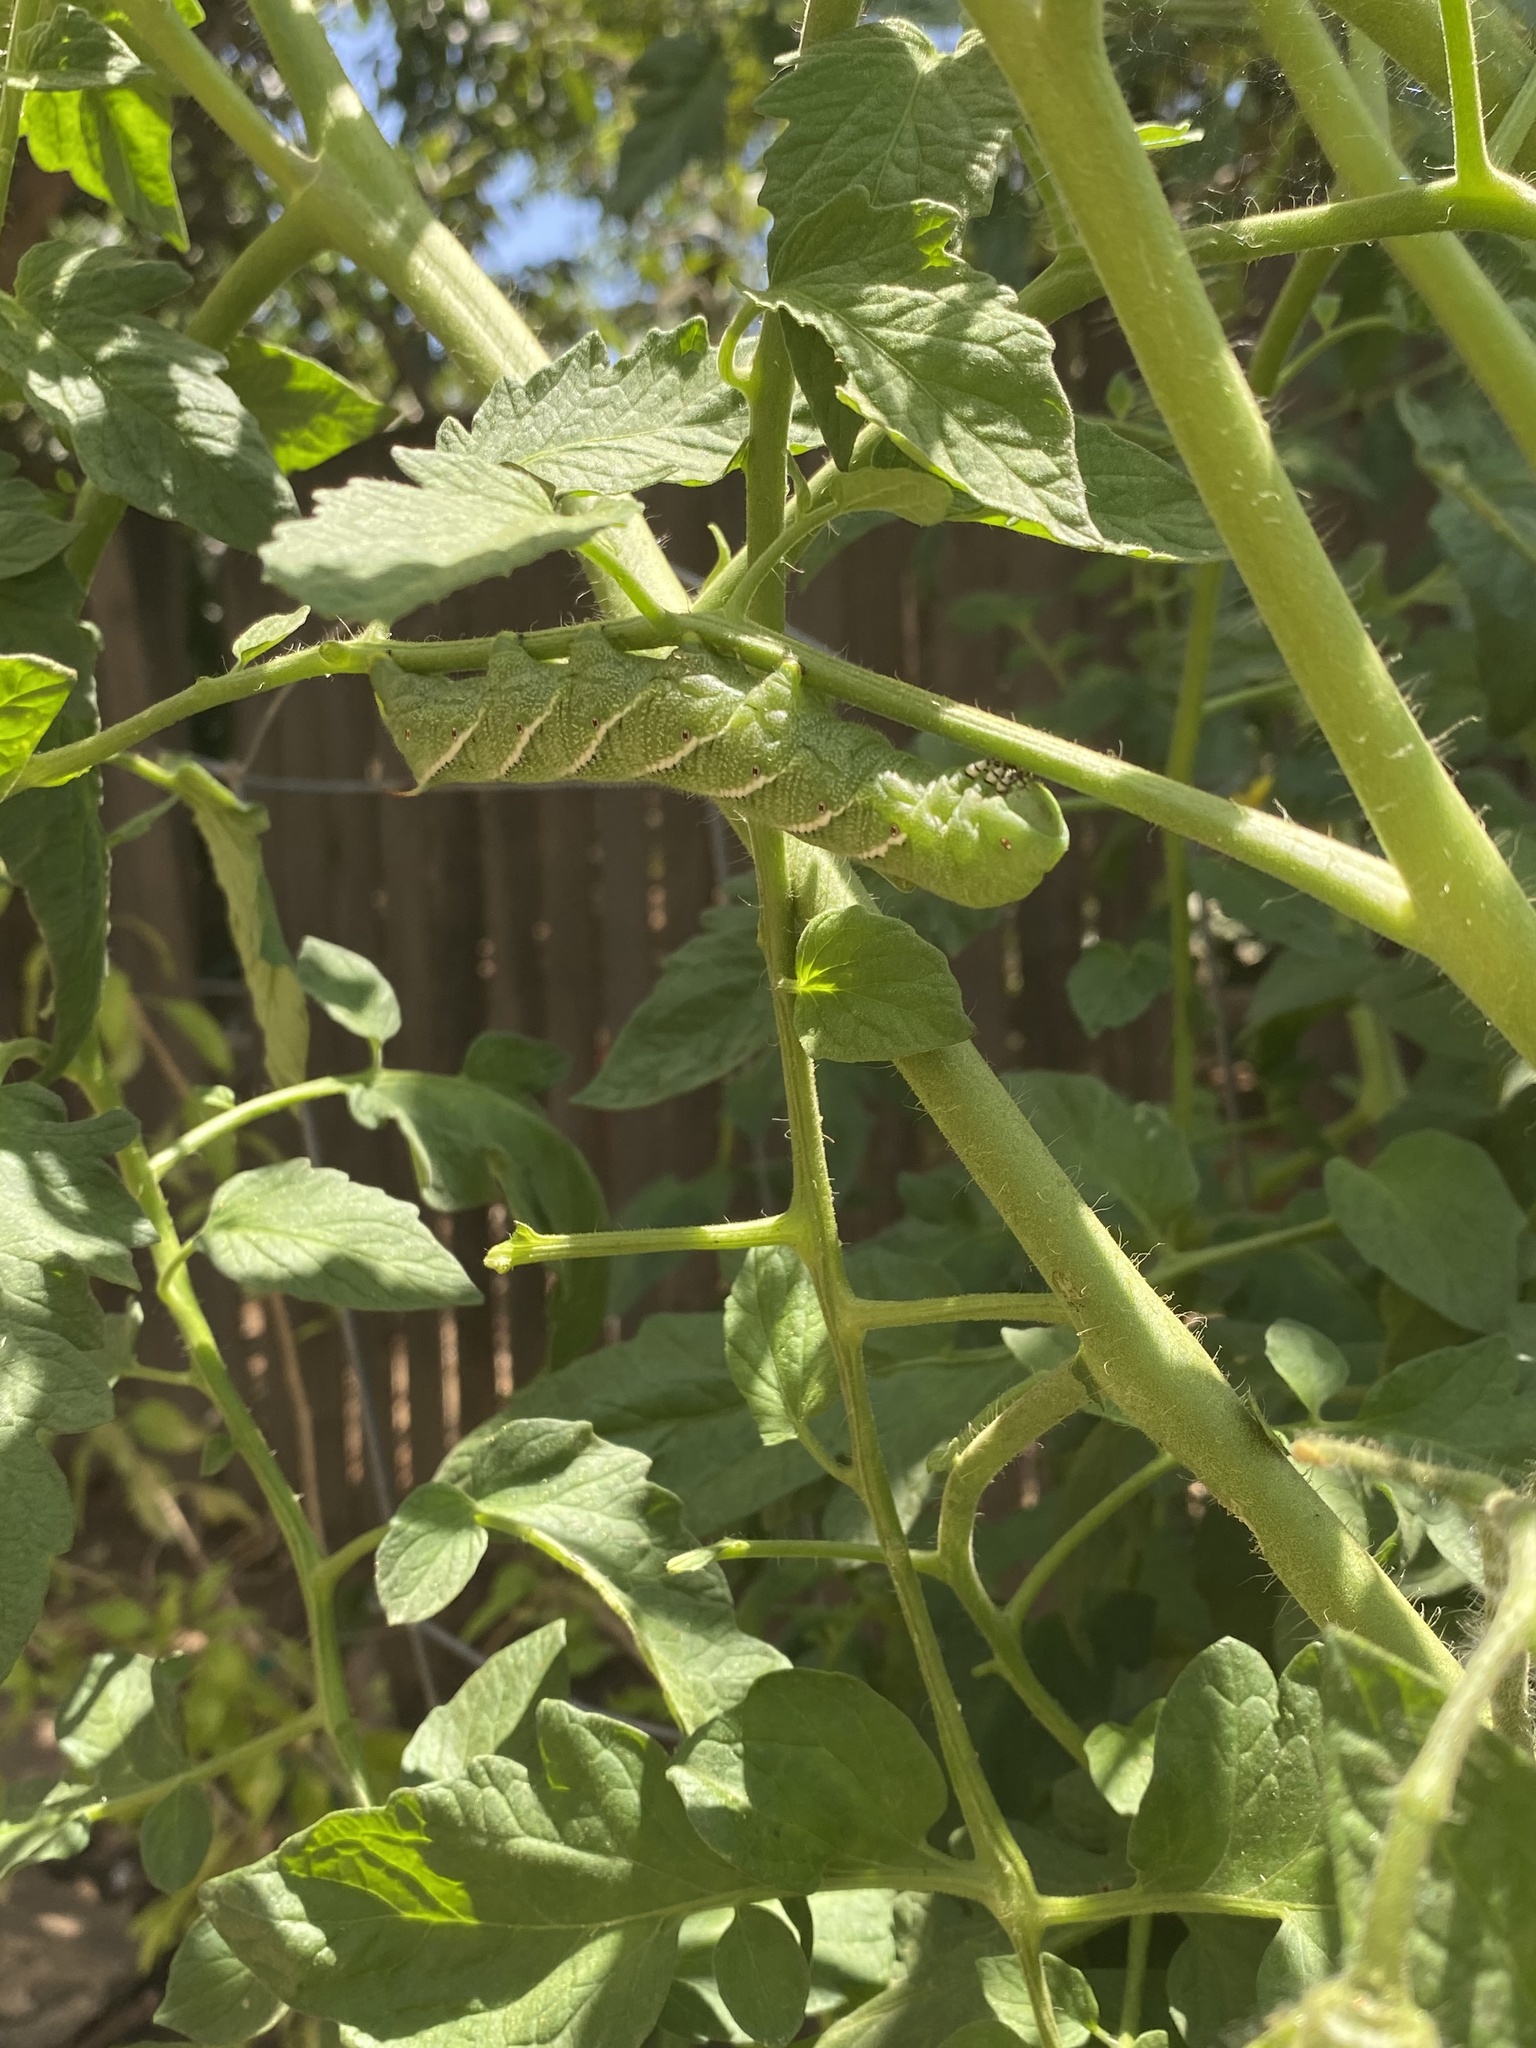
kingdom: Animalia
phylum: Arthropoda
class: Insecta
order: Lepidoptera
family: Sphingidae
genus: Manduca
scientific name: Manduca sexta
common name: Carolina sphinx
